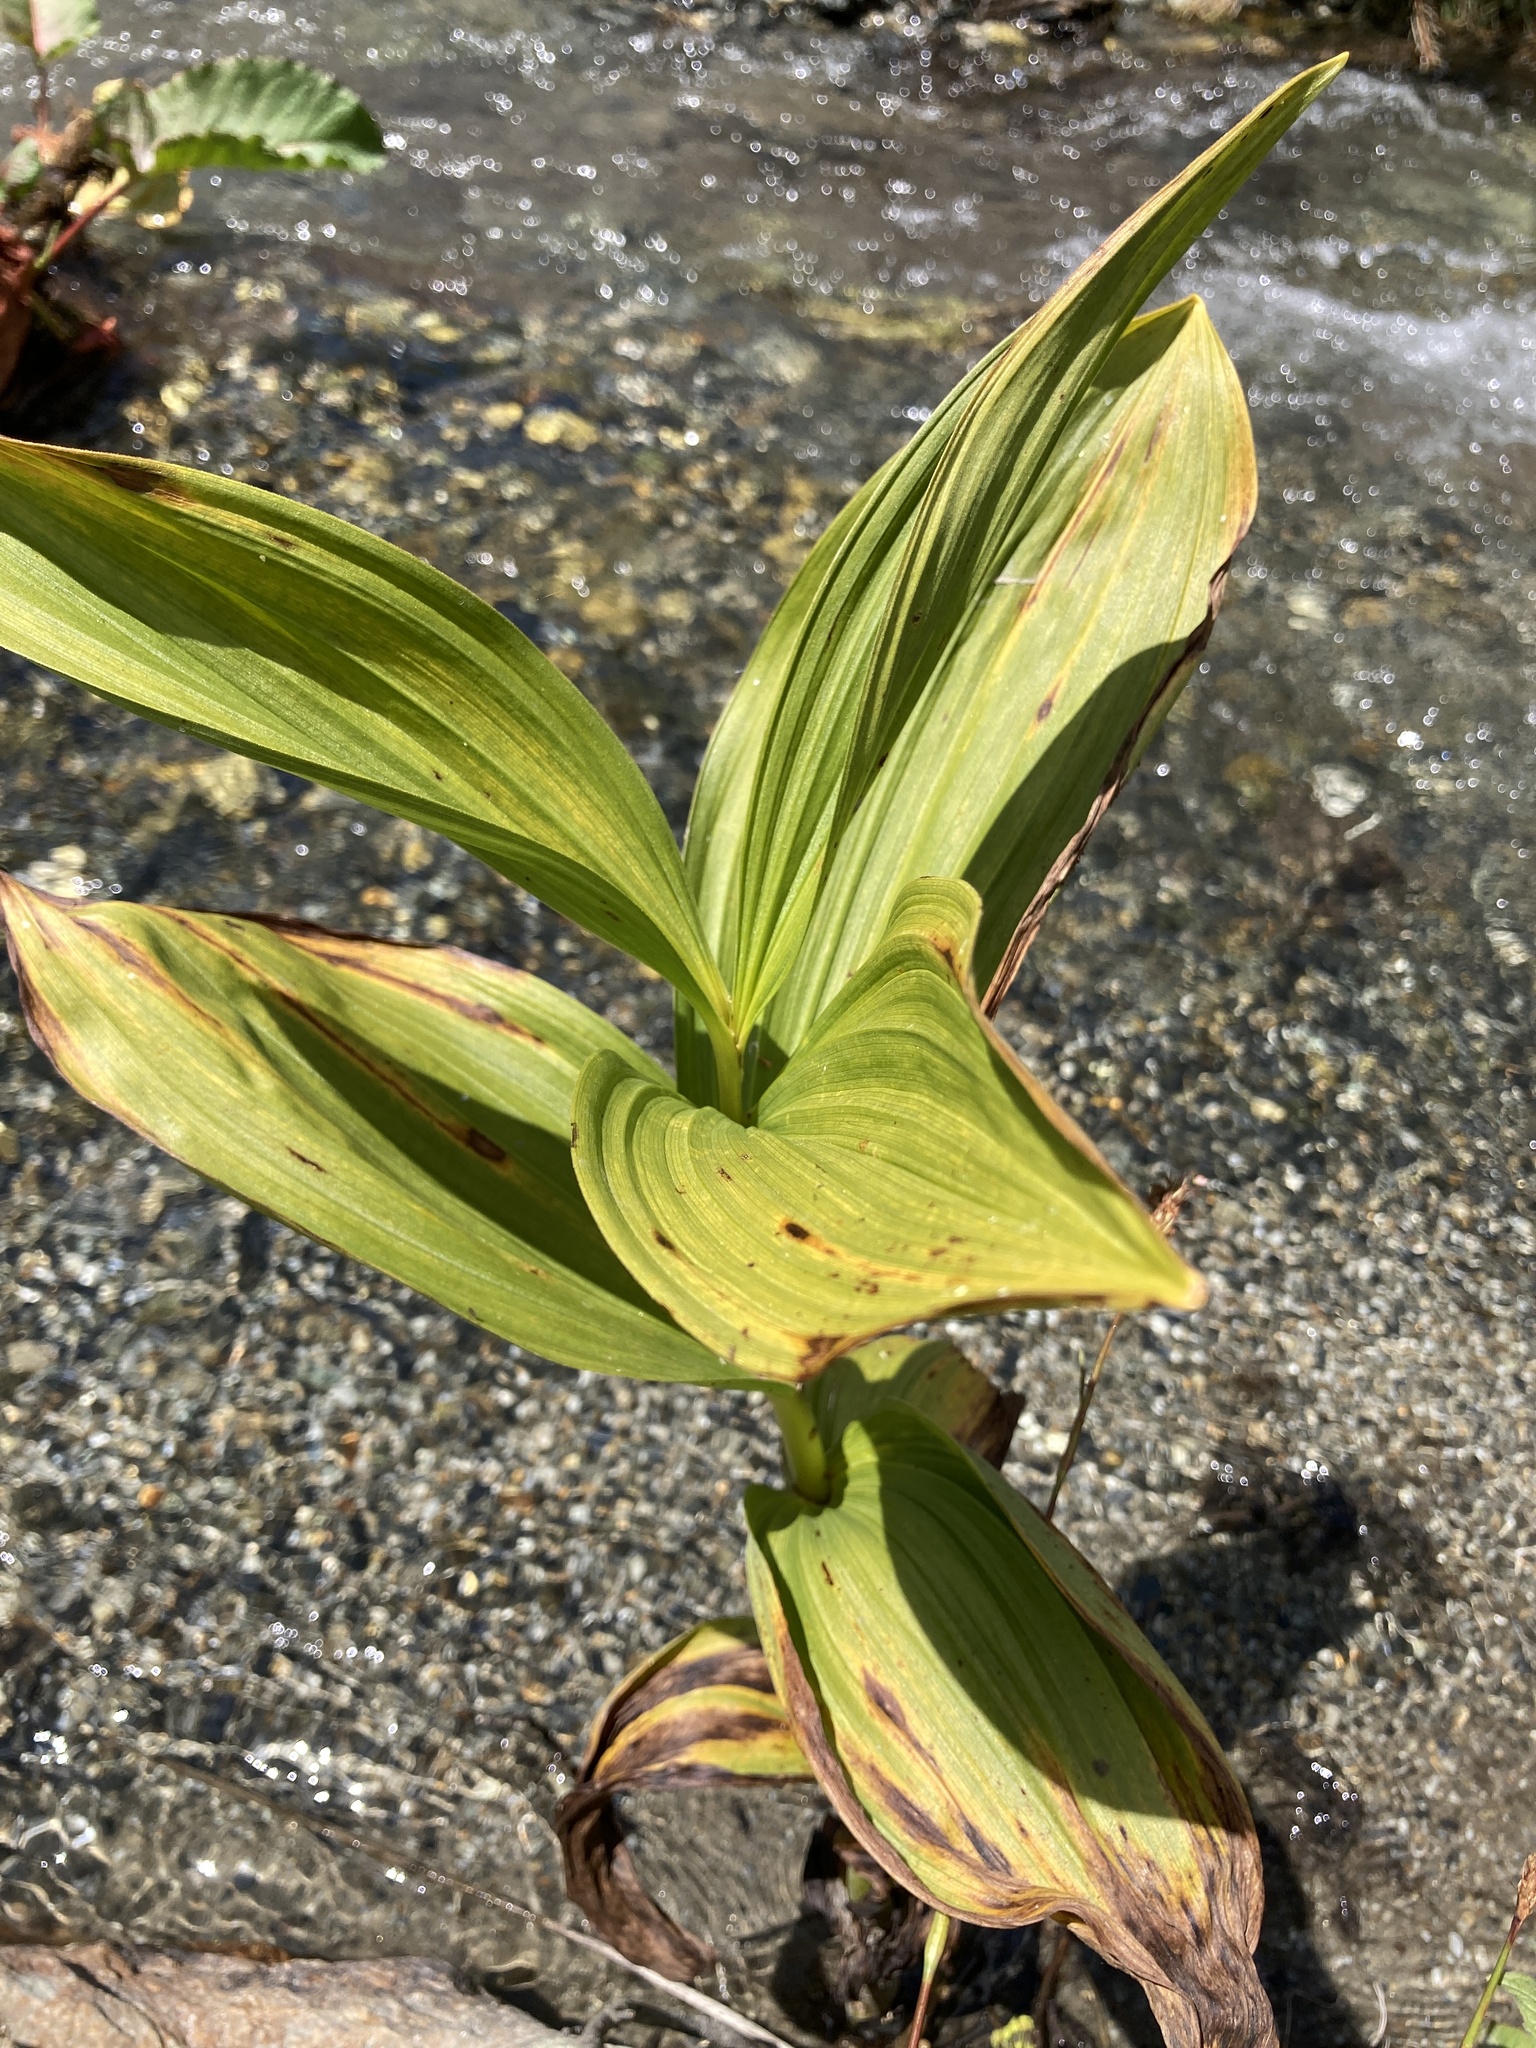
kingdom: Plantae
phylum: Tracheophyta
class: Liliopsida
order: Liliales
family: Melanthiaceae
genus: Veratrum
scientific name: Veratrum lobelianum
